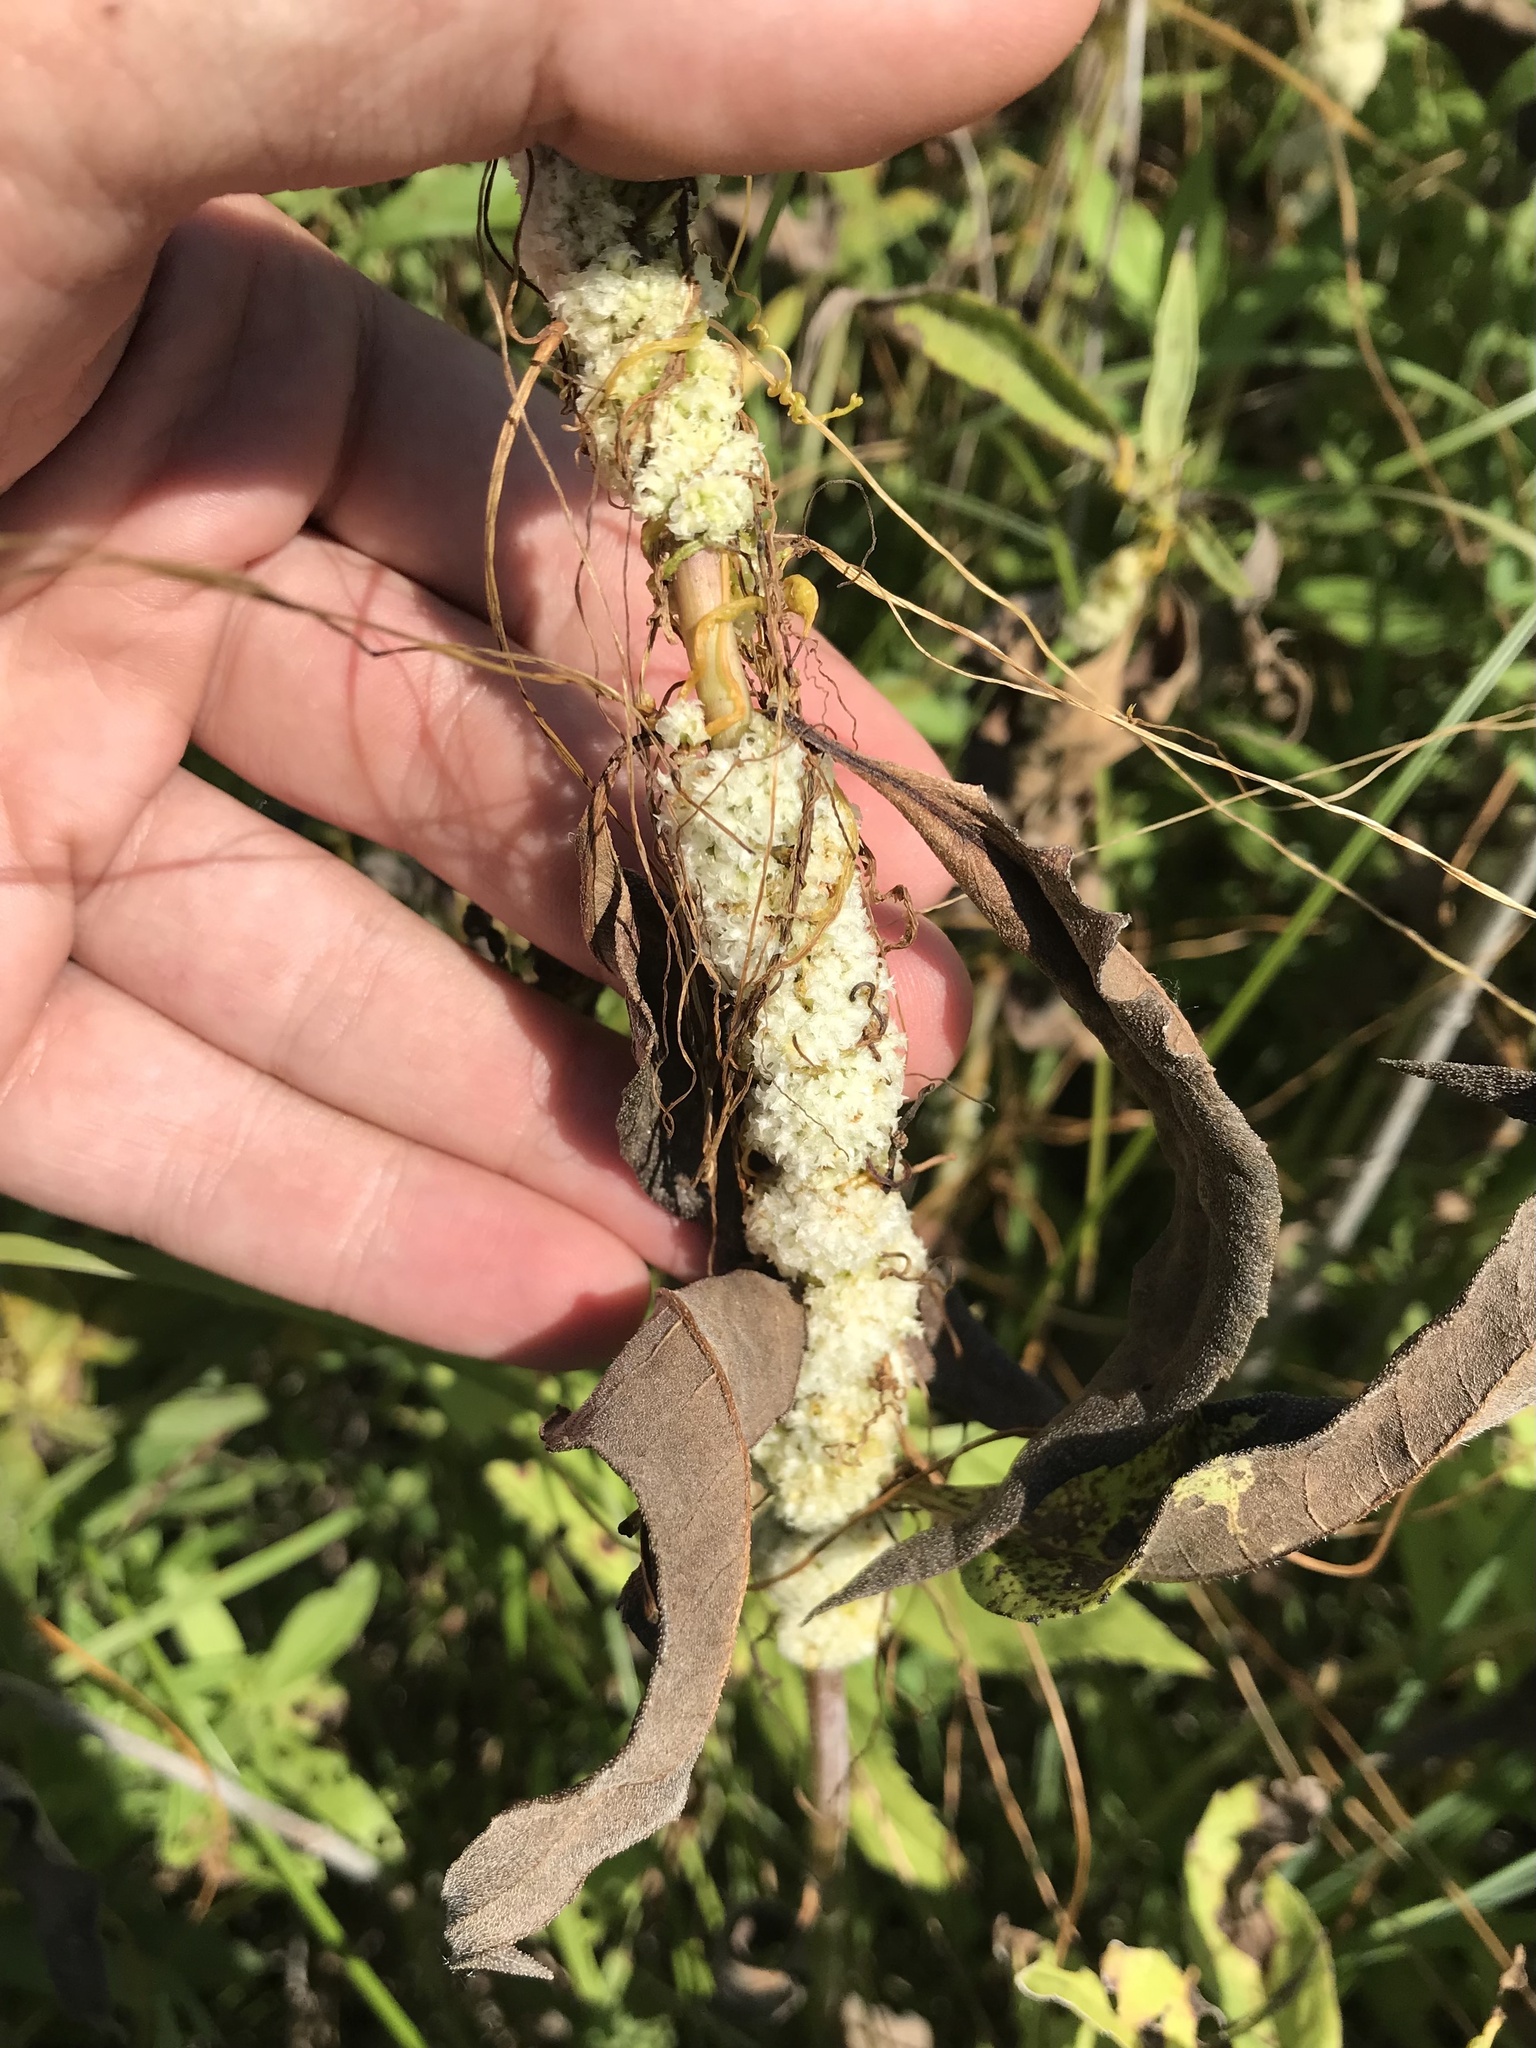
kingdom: Plantae
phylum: Tracheophyta
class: Magnoliopsida
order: Solanales
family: Convolvulaceae
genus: Cuscuta
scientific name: Cuscuta glomerata
